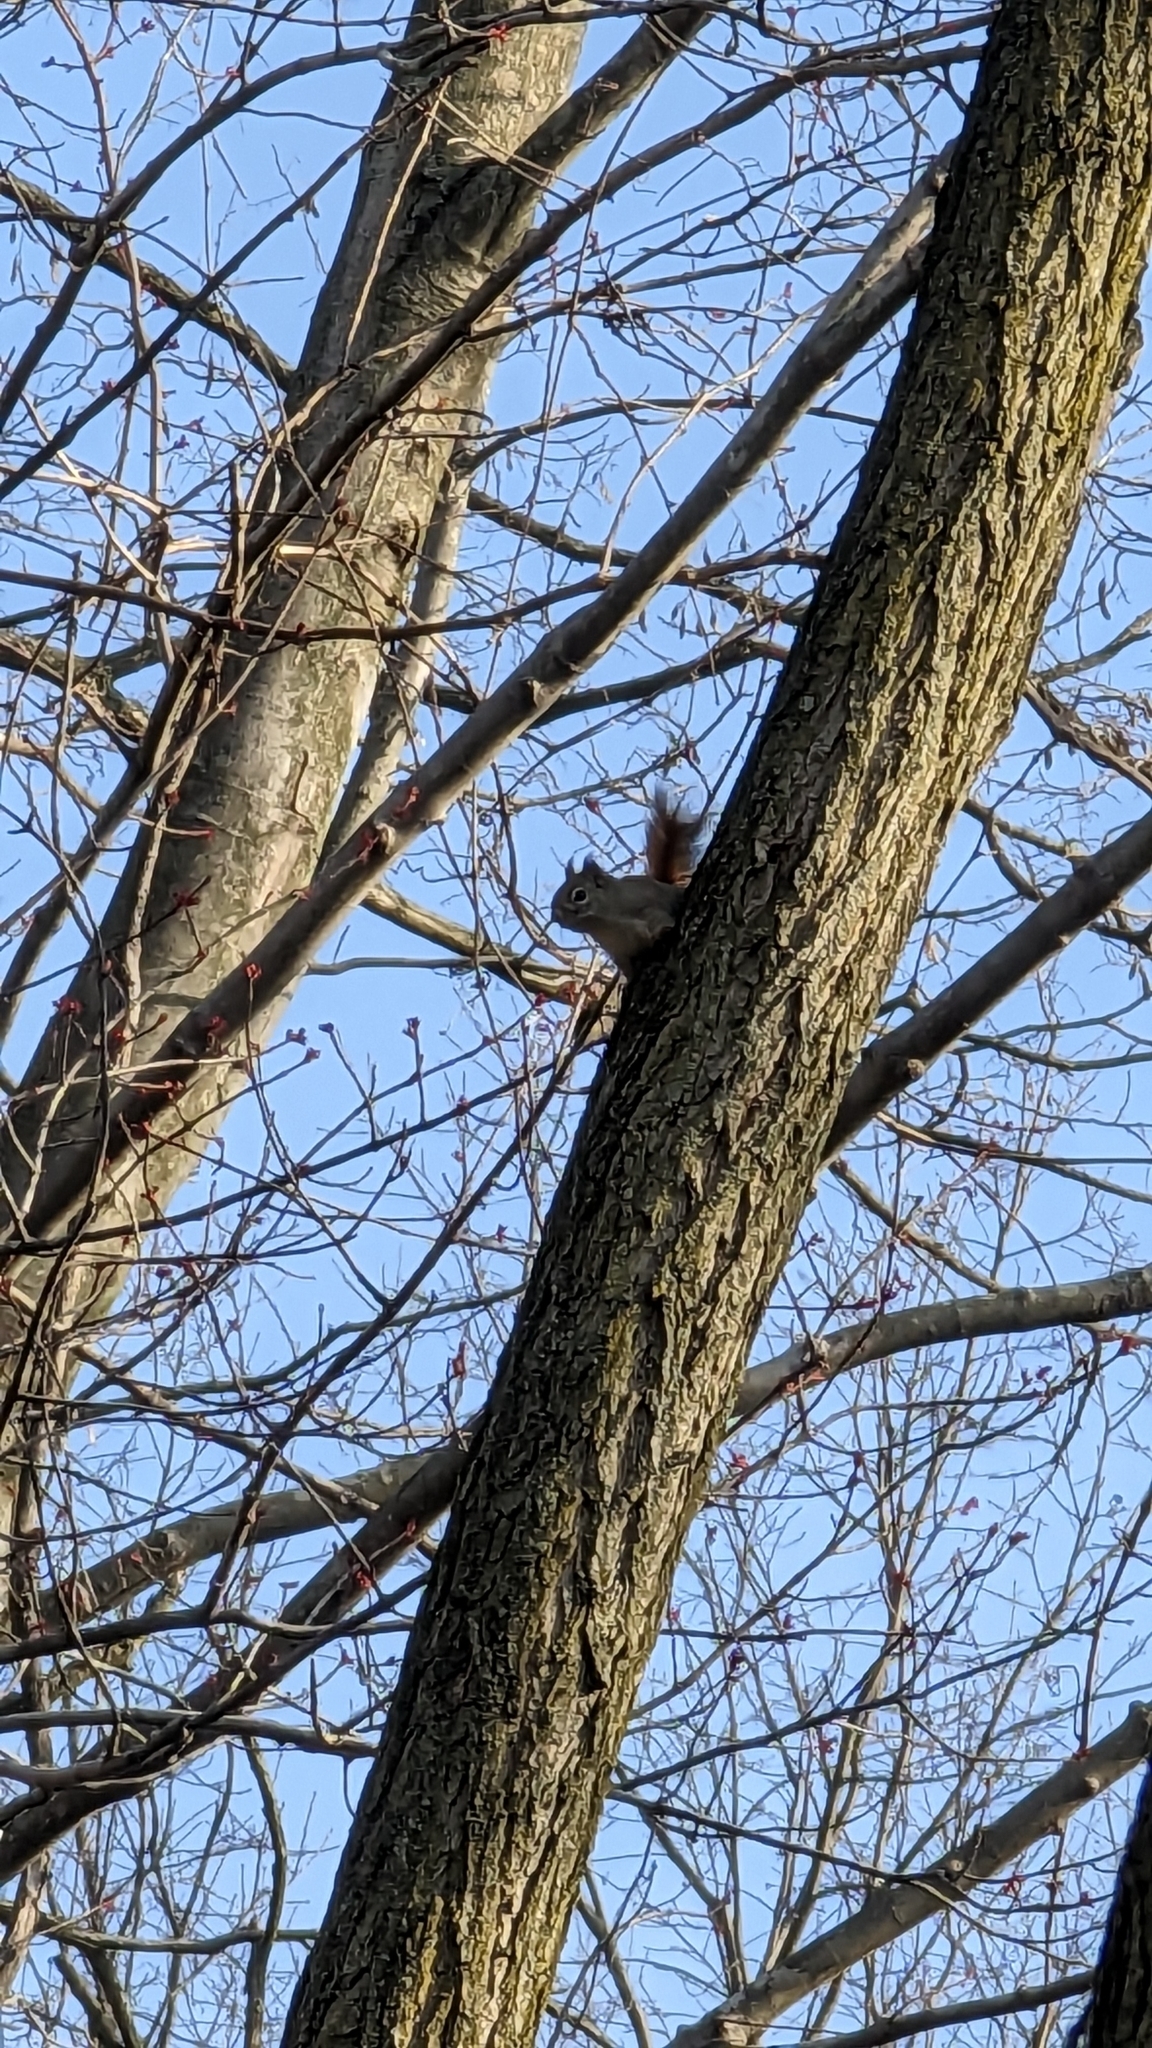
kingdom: Animalia
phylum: Chordata
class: Mammalia
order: Rodentia
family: Sciuridae
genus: Tamiasciurus
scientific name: Tamiasciurus hudsonicus
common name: Red squirrel
